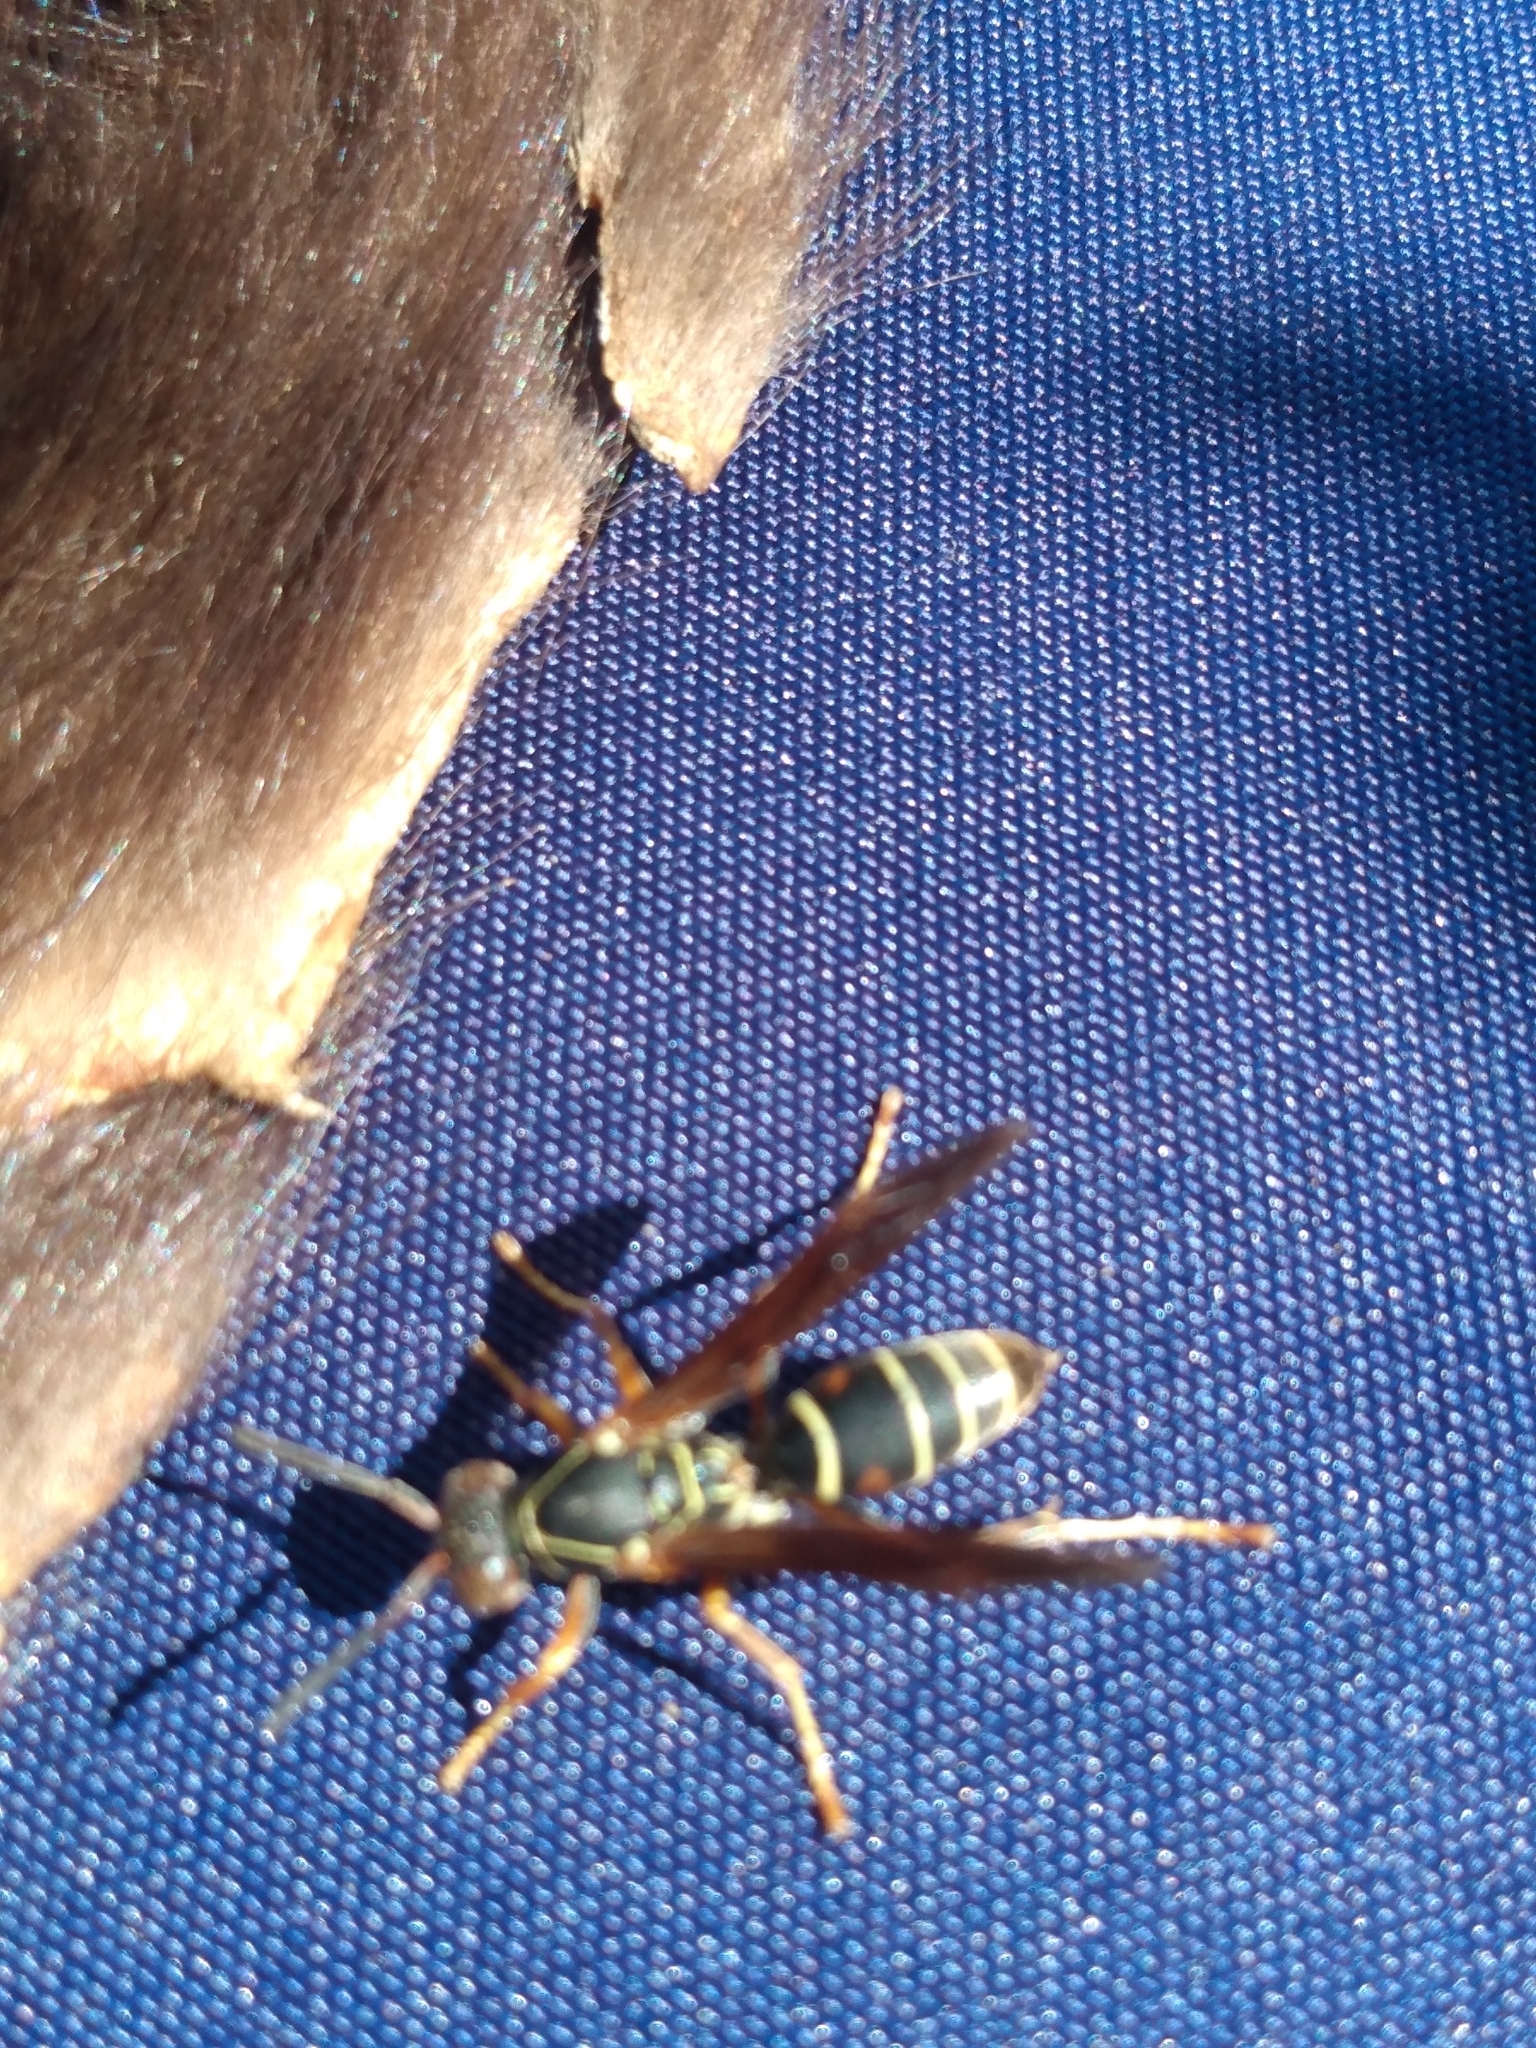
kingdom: Animalia
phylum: Arthropoda
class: Insecta
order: Hymenoptera
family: Eumenidae
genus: Polistes
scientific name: Polistes fuscatus
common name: Dark paper wasp
